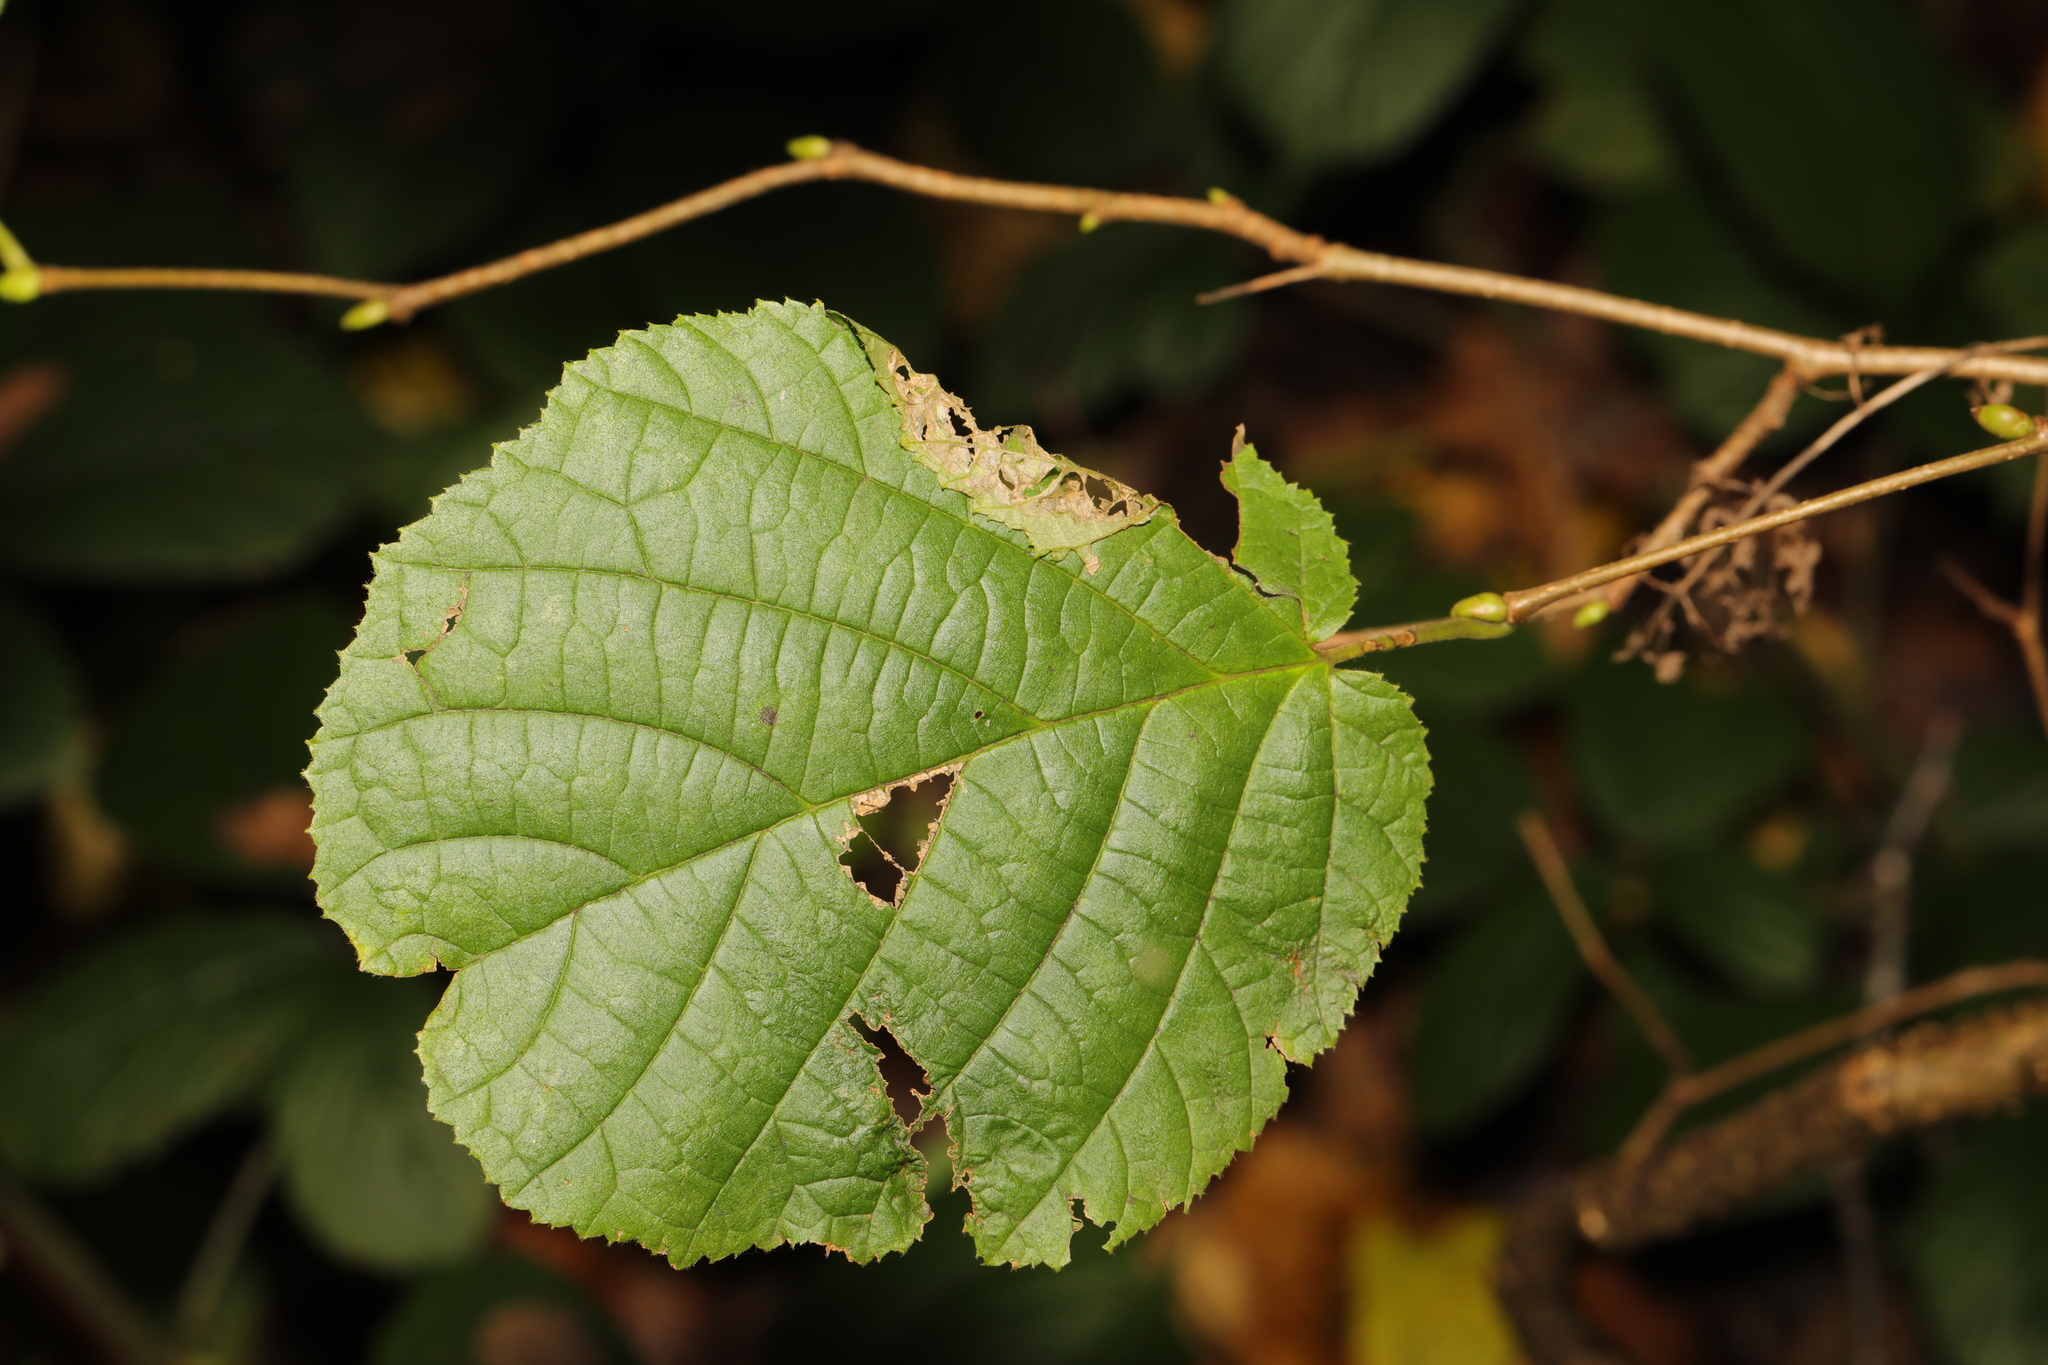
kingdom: Plantae
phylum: Tracheophyta
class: Magnoliopsida
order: Fagales
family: Betulaceae
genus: Corylus
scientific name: Corylus avellana
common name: European hazel
